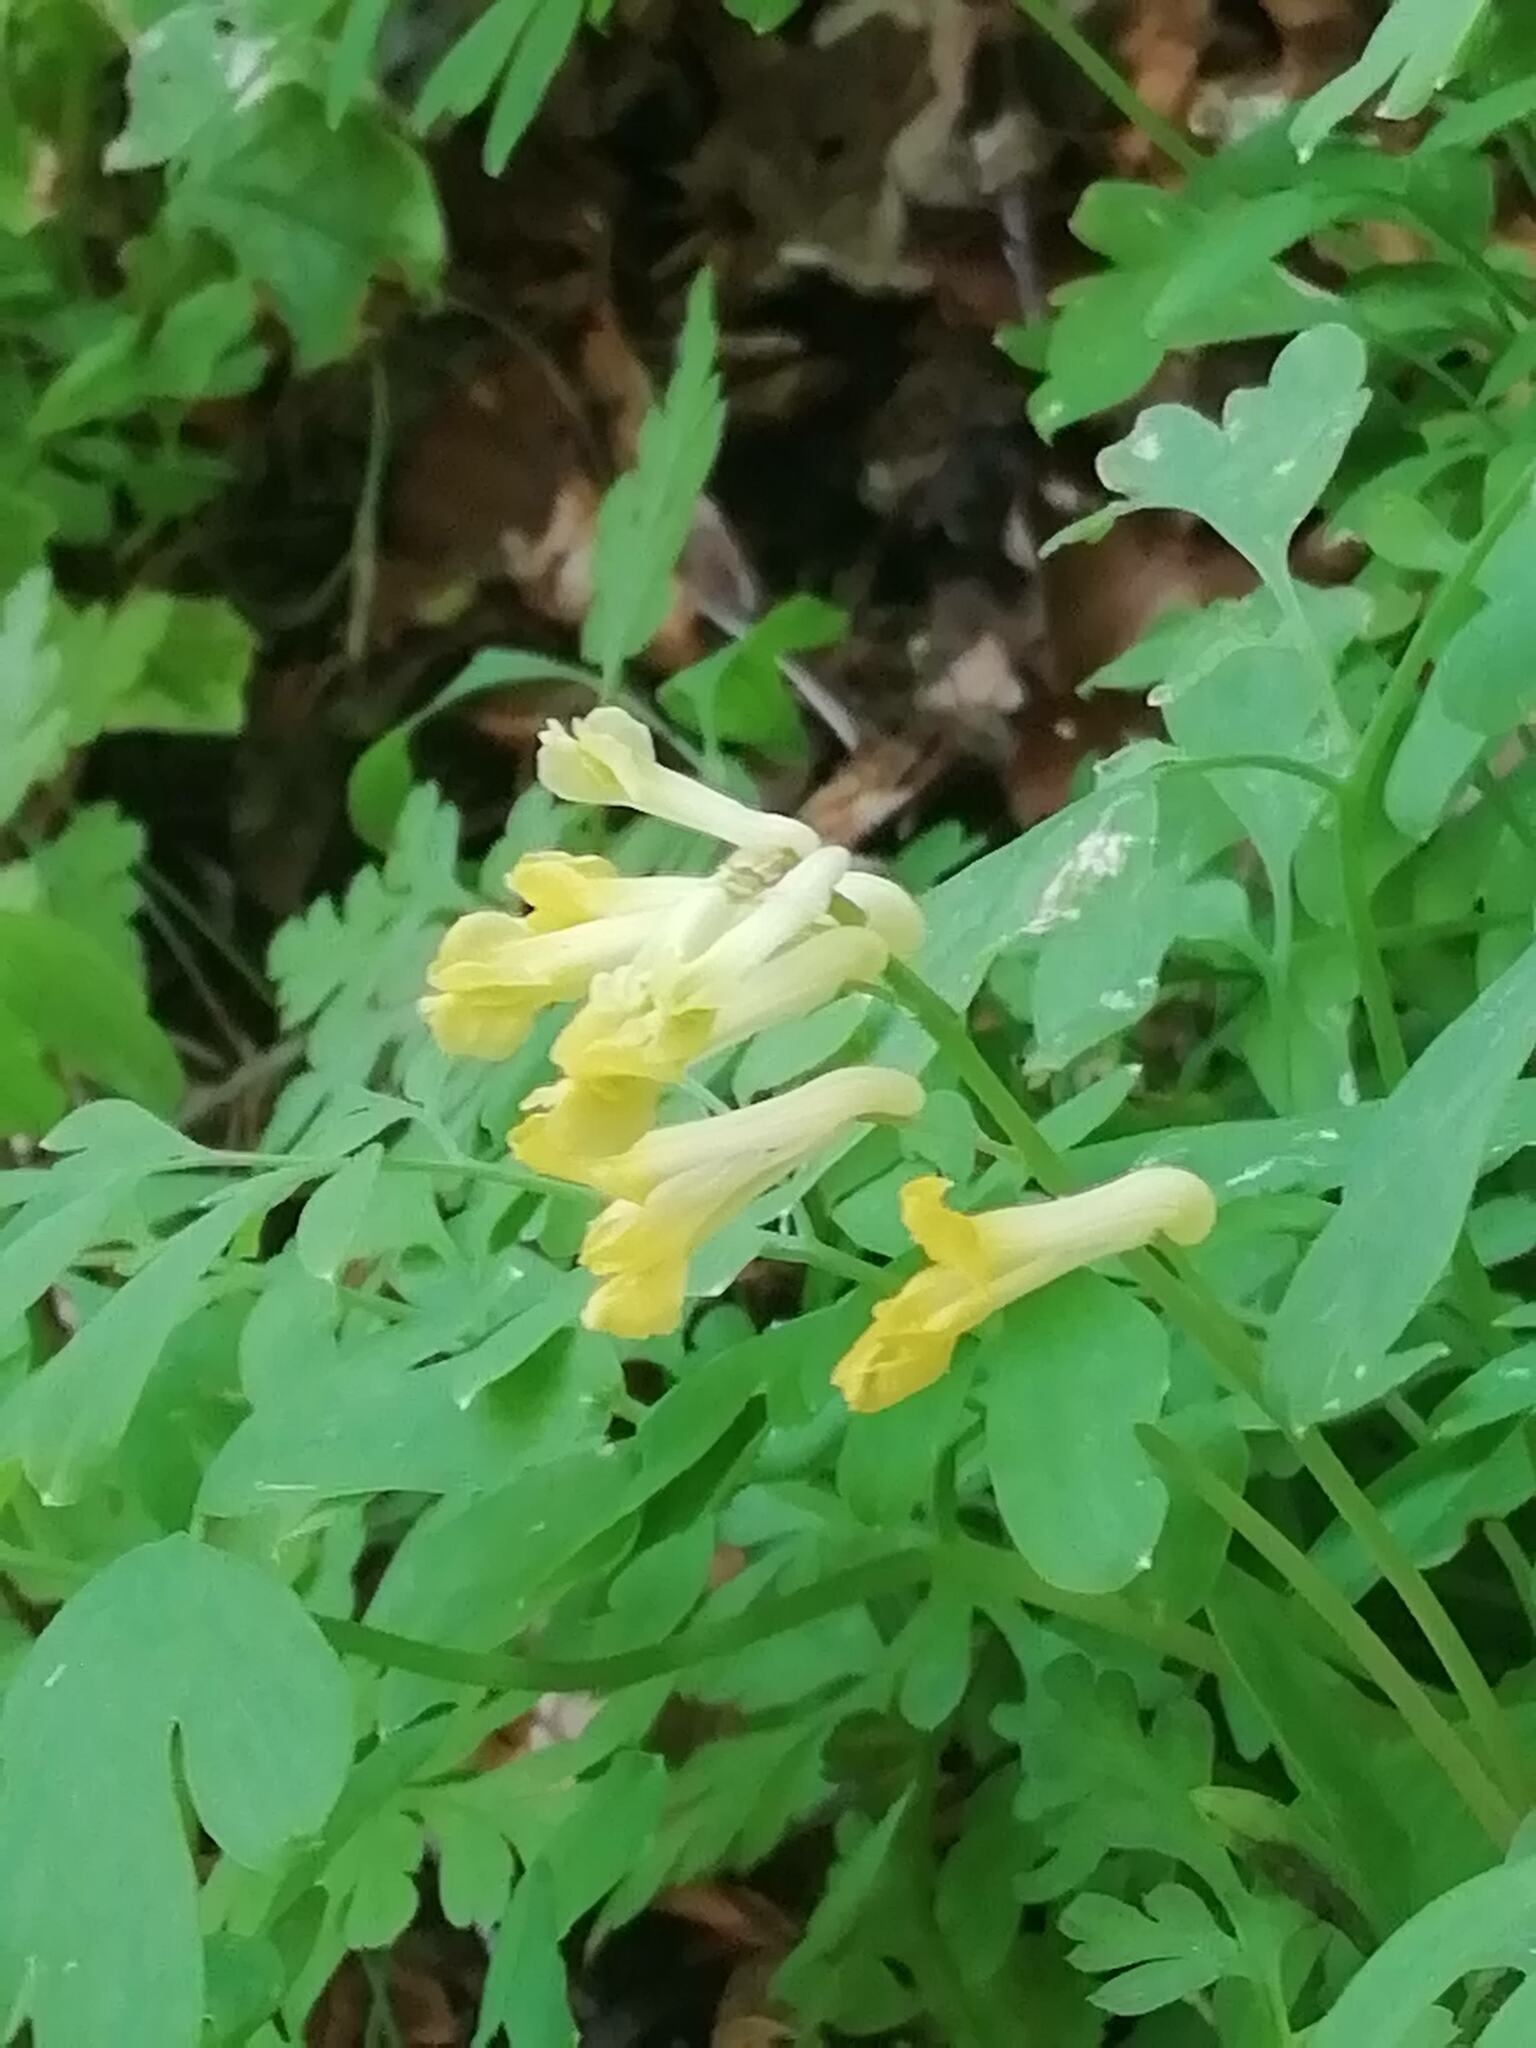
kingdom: Plantae
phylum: Tracheophyta
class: Magnoliopsida
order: Ranunculales
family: Papaveraceae
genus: Pseudofumaria
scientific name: Pseudofumaria lutea
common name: Yellow corydalis
